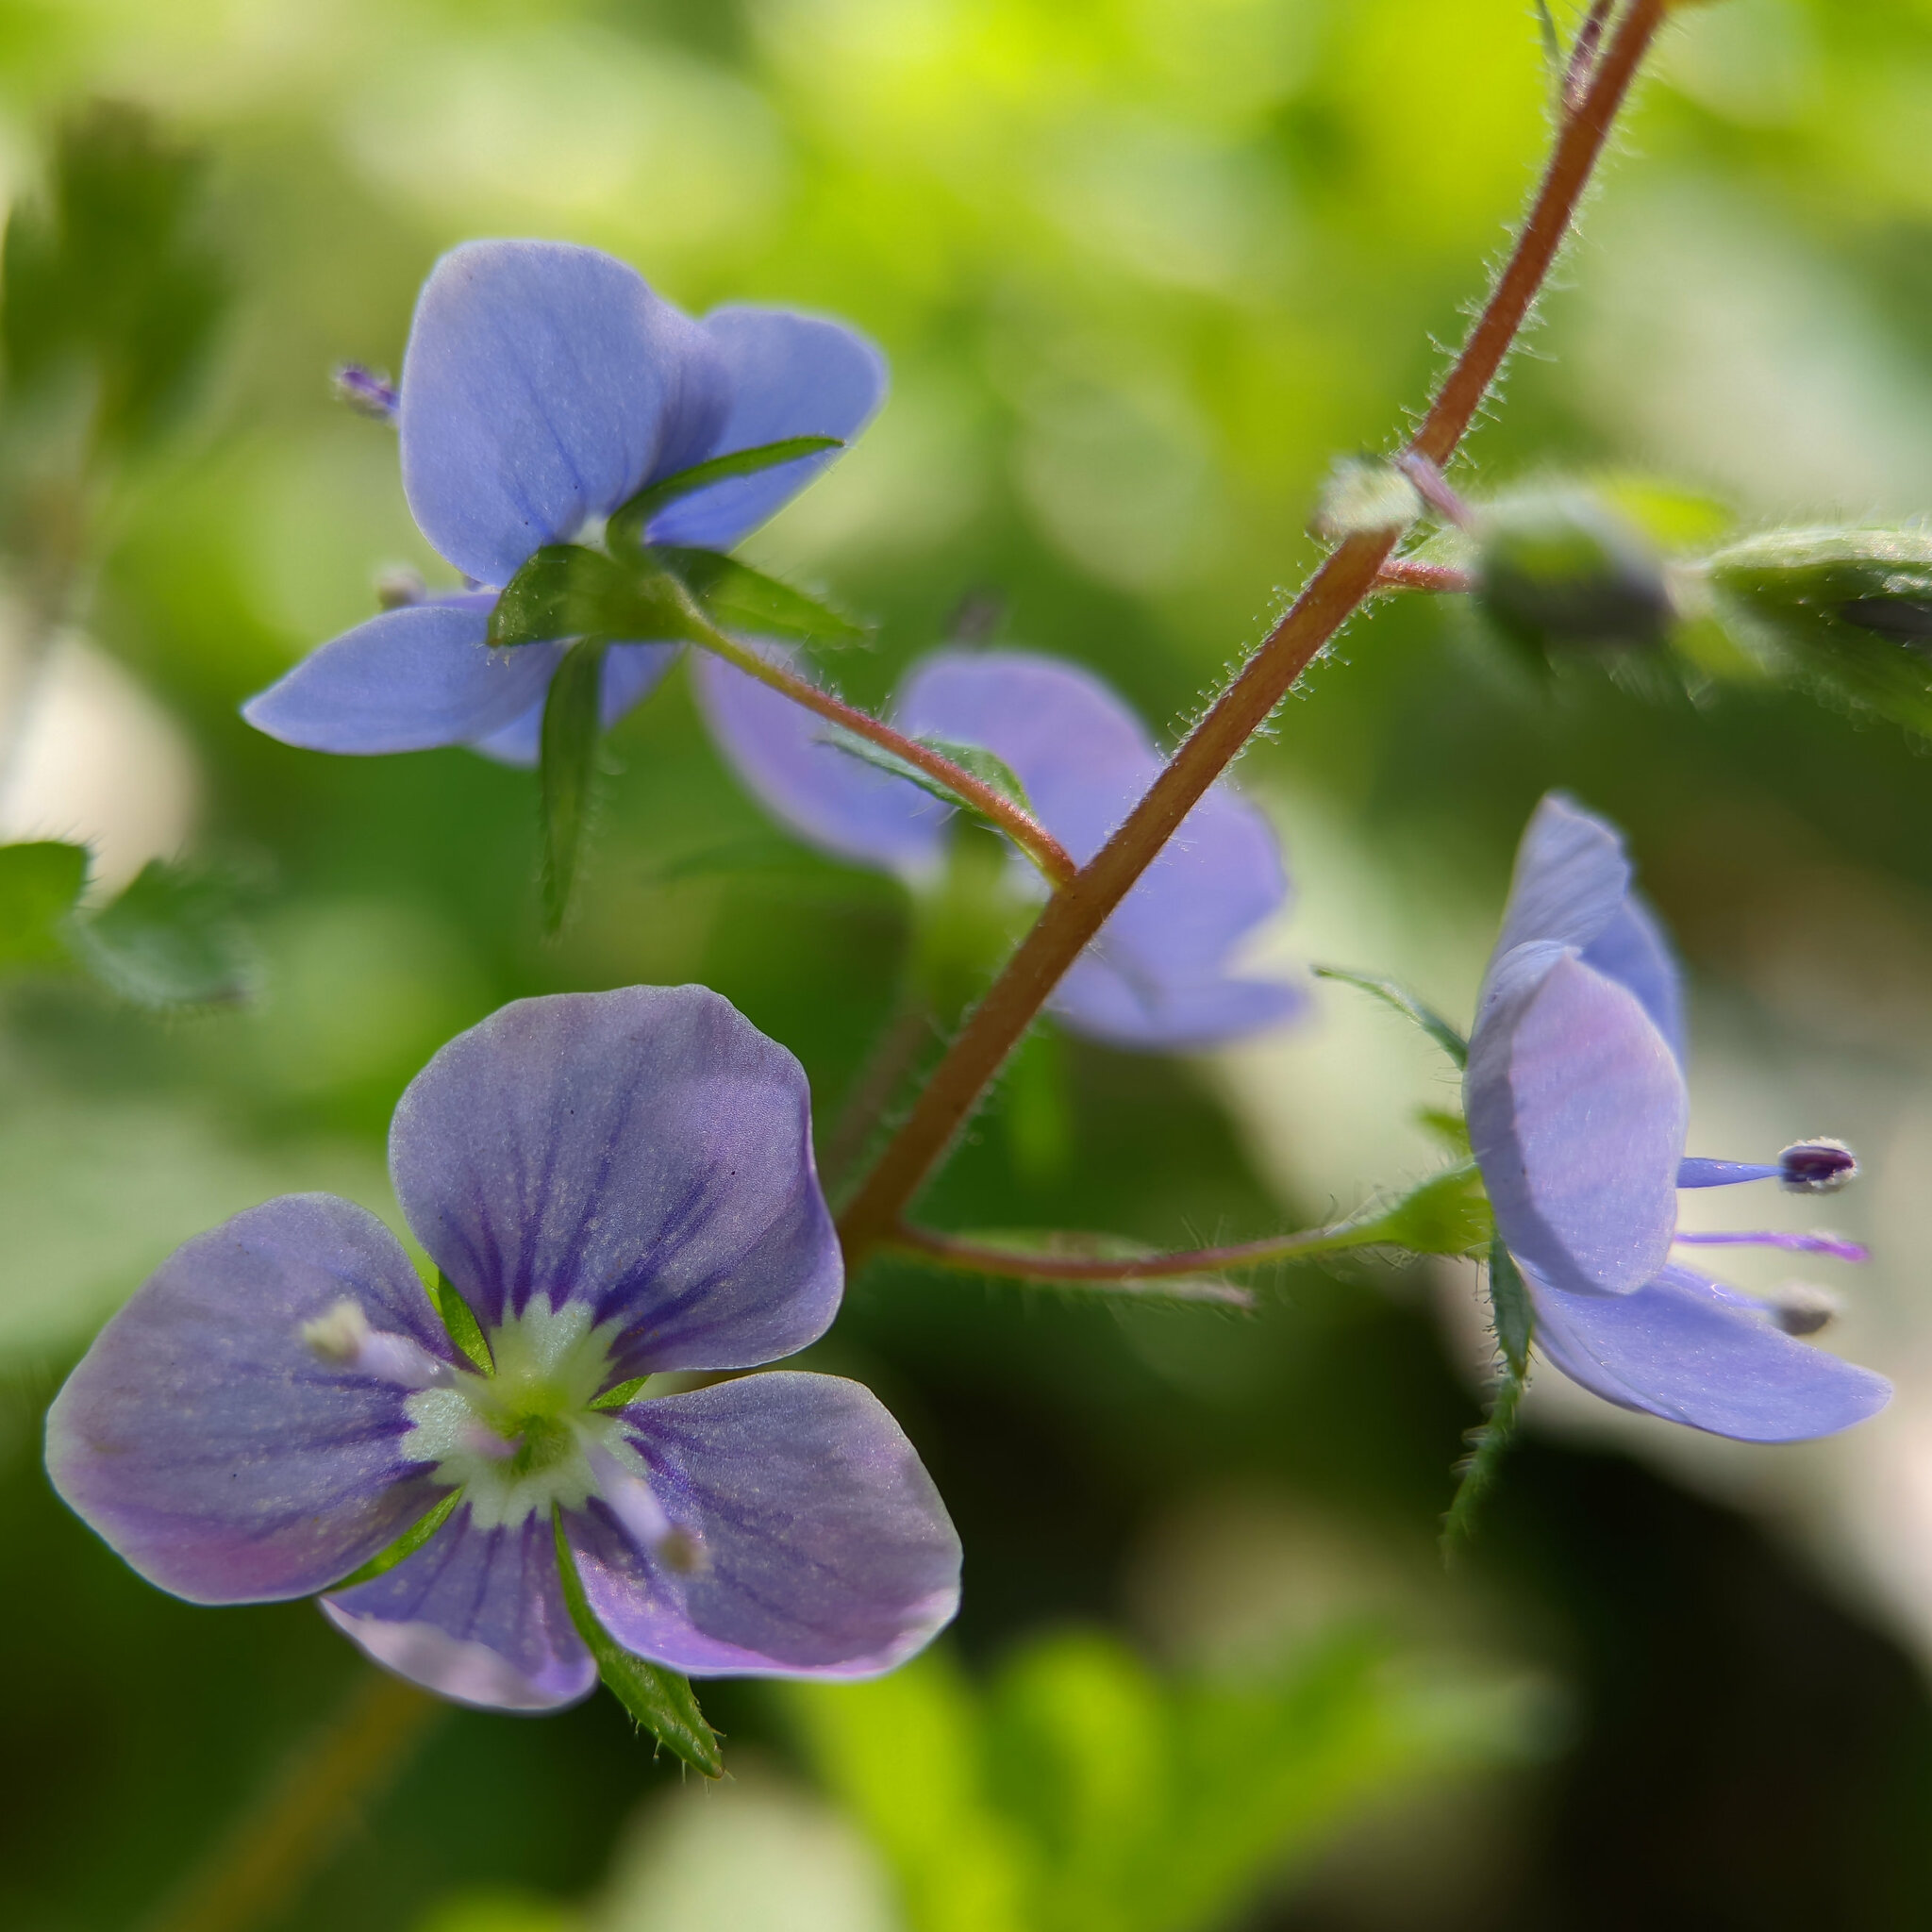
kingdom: Plantae
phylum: Tracheophyta
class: Magnoliopsida
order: Lamiales
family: Plantaginaceae
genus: Veronica
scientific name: Veronica chamaedrys
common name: Germander speedwell
